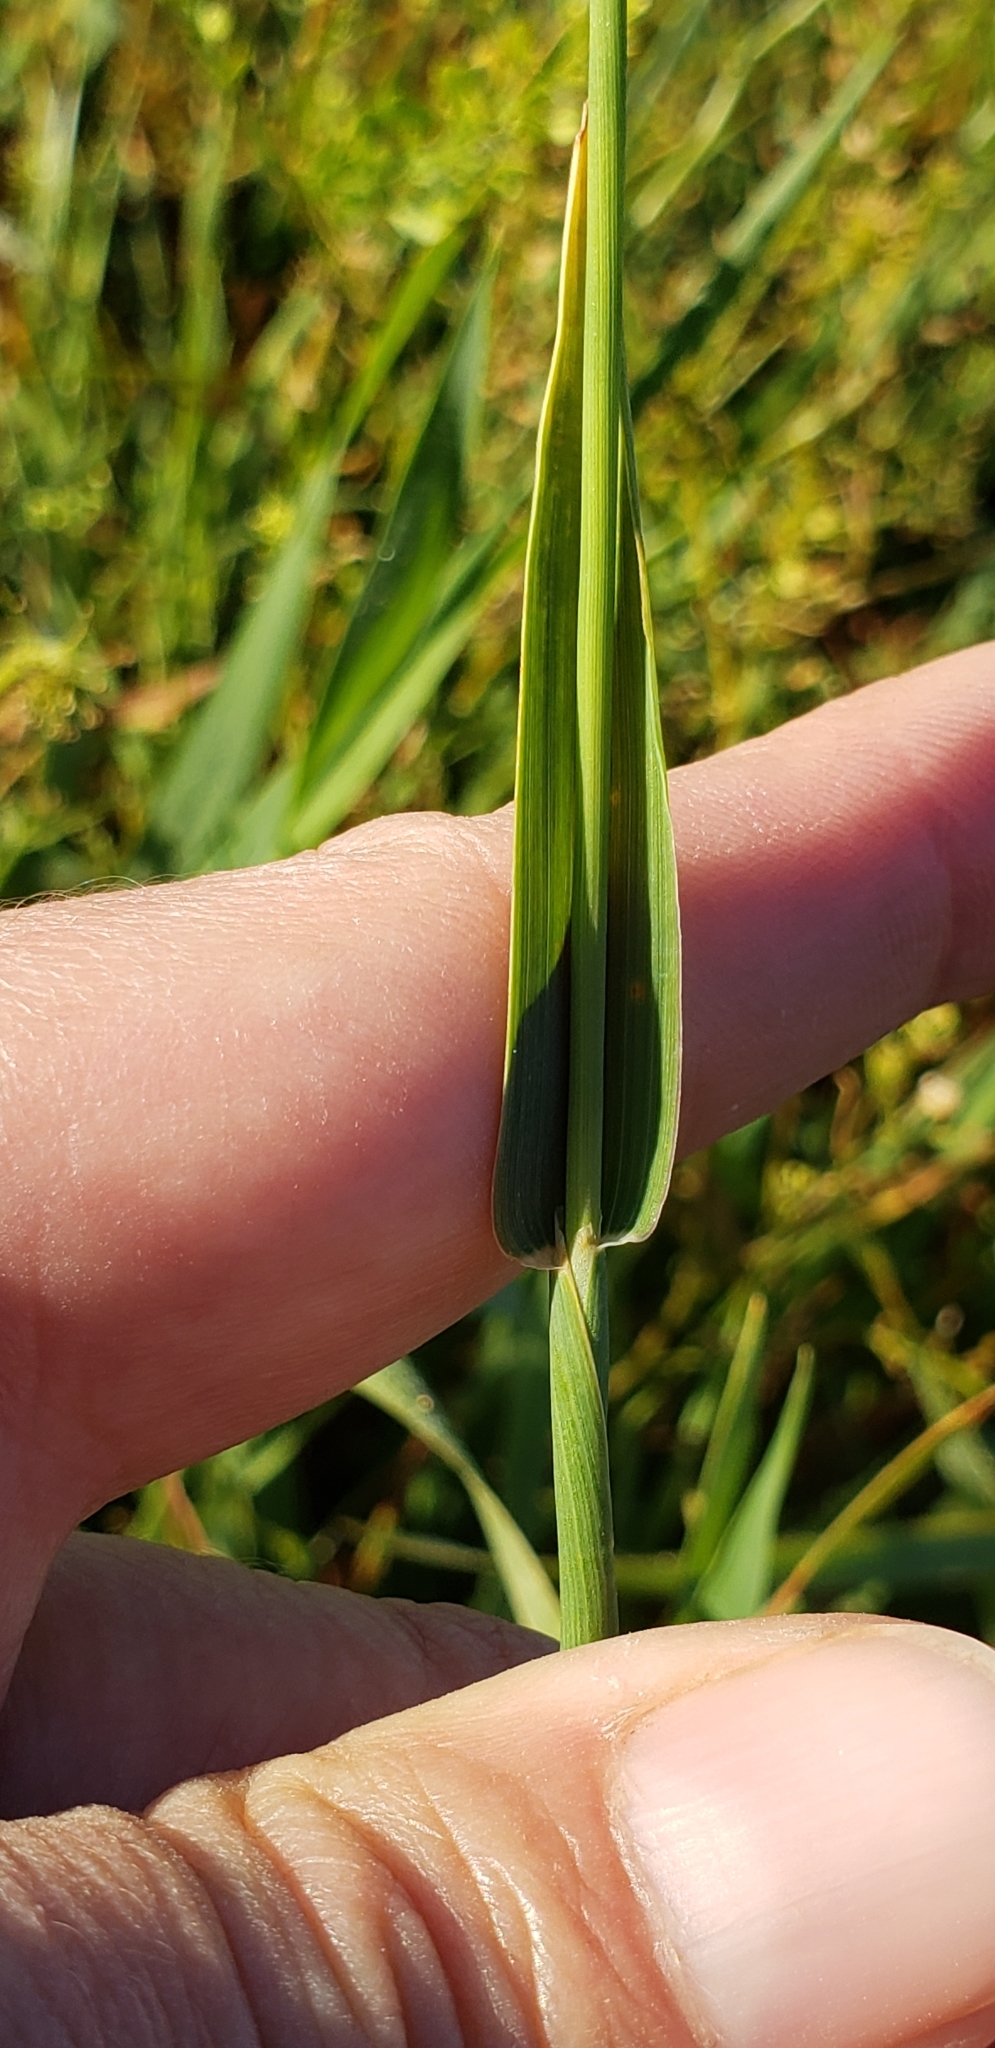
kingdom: Plantae
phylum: Tracheophyta
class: Liliopsida
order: Poales
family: Poaceae
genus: Phleum
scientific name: Phleum pratense
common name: Timothy grass
